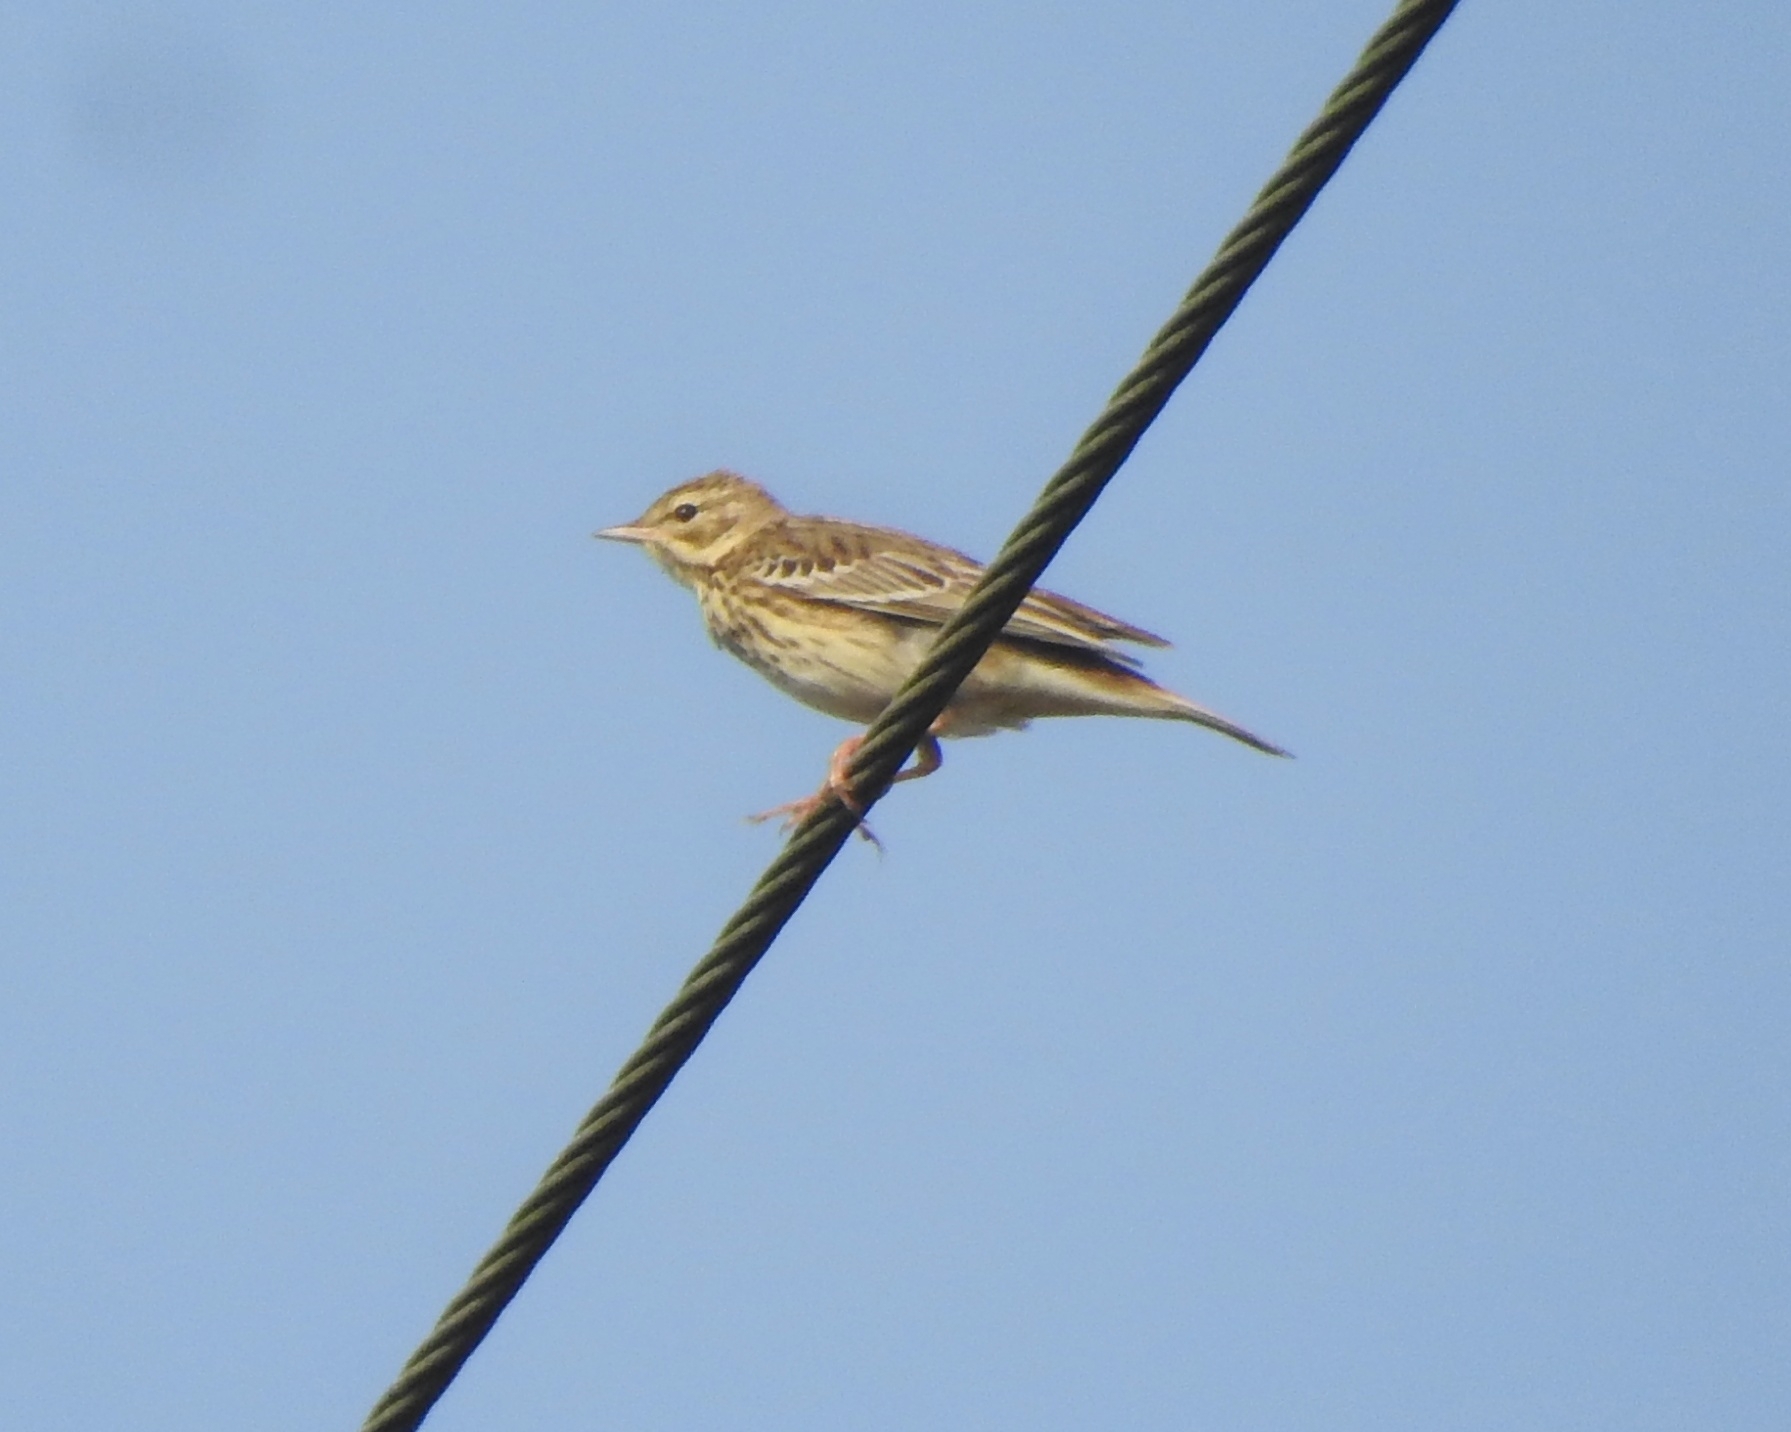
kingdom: Animalia
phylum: Chordata
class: Aves
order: Passeriformes
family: Motacillidae
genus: Anthus
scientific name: Anthus trivialis
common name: Tree pipit
